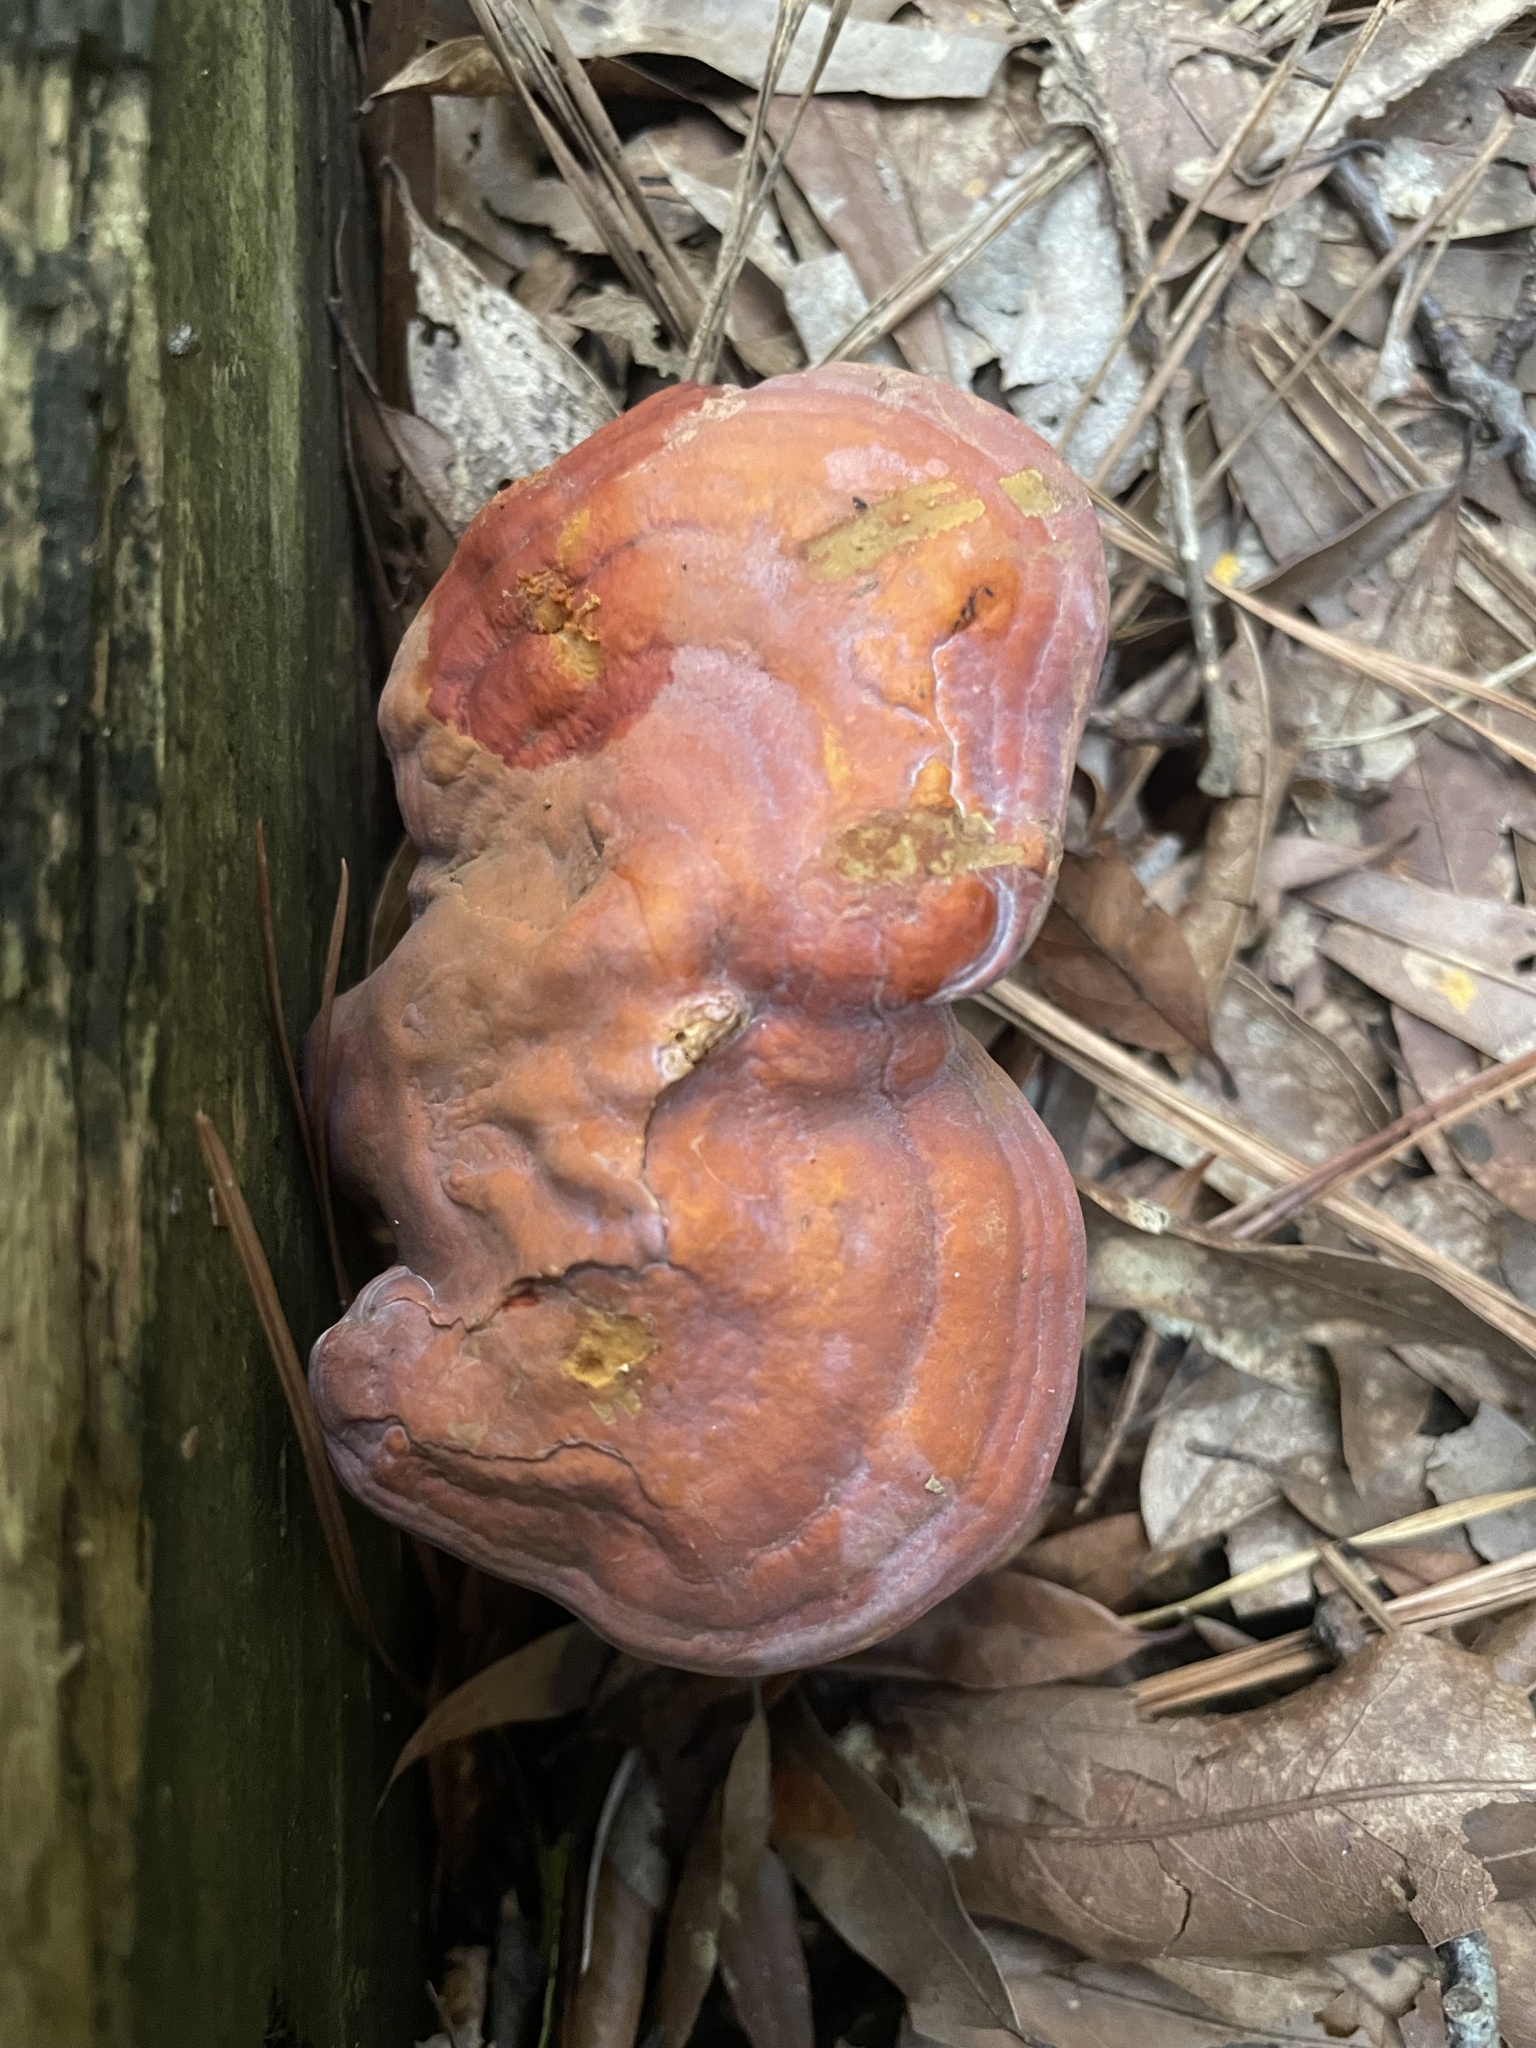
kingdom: Fungi
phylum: Basidiomycota
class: Agaricomycetes
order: Polyporales
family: Polyporaceae
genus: Ganoderma
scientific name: Ganoderma curtisii
